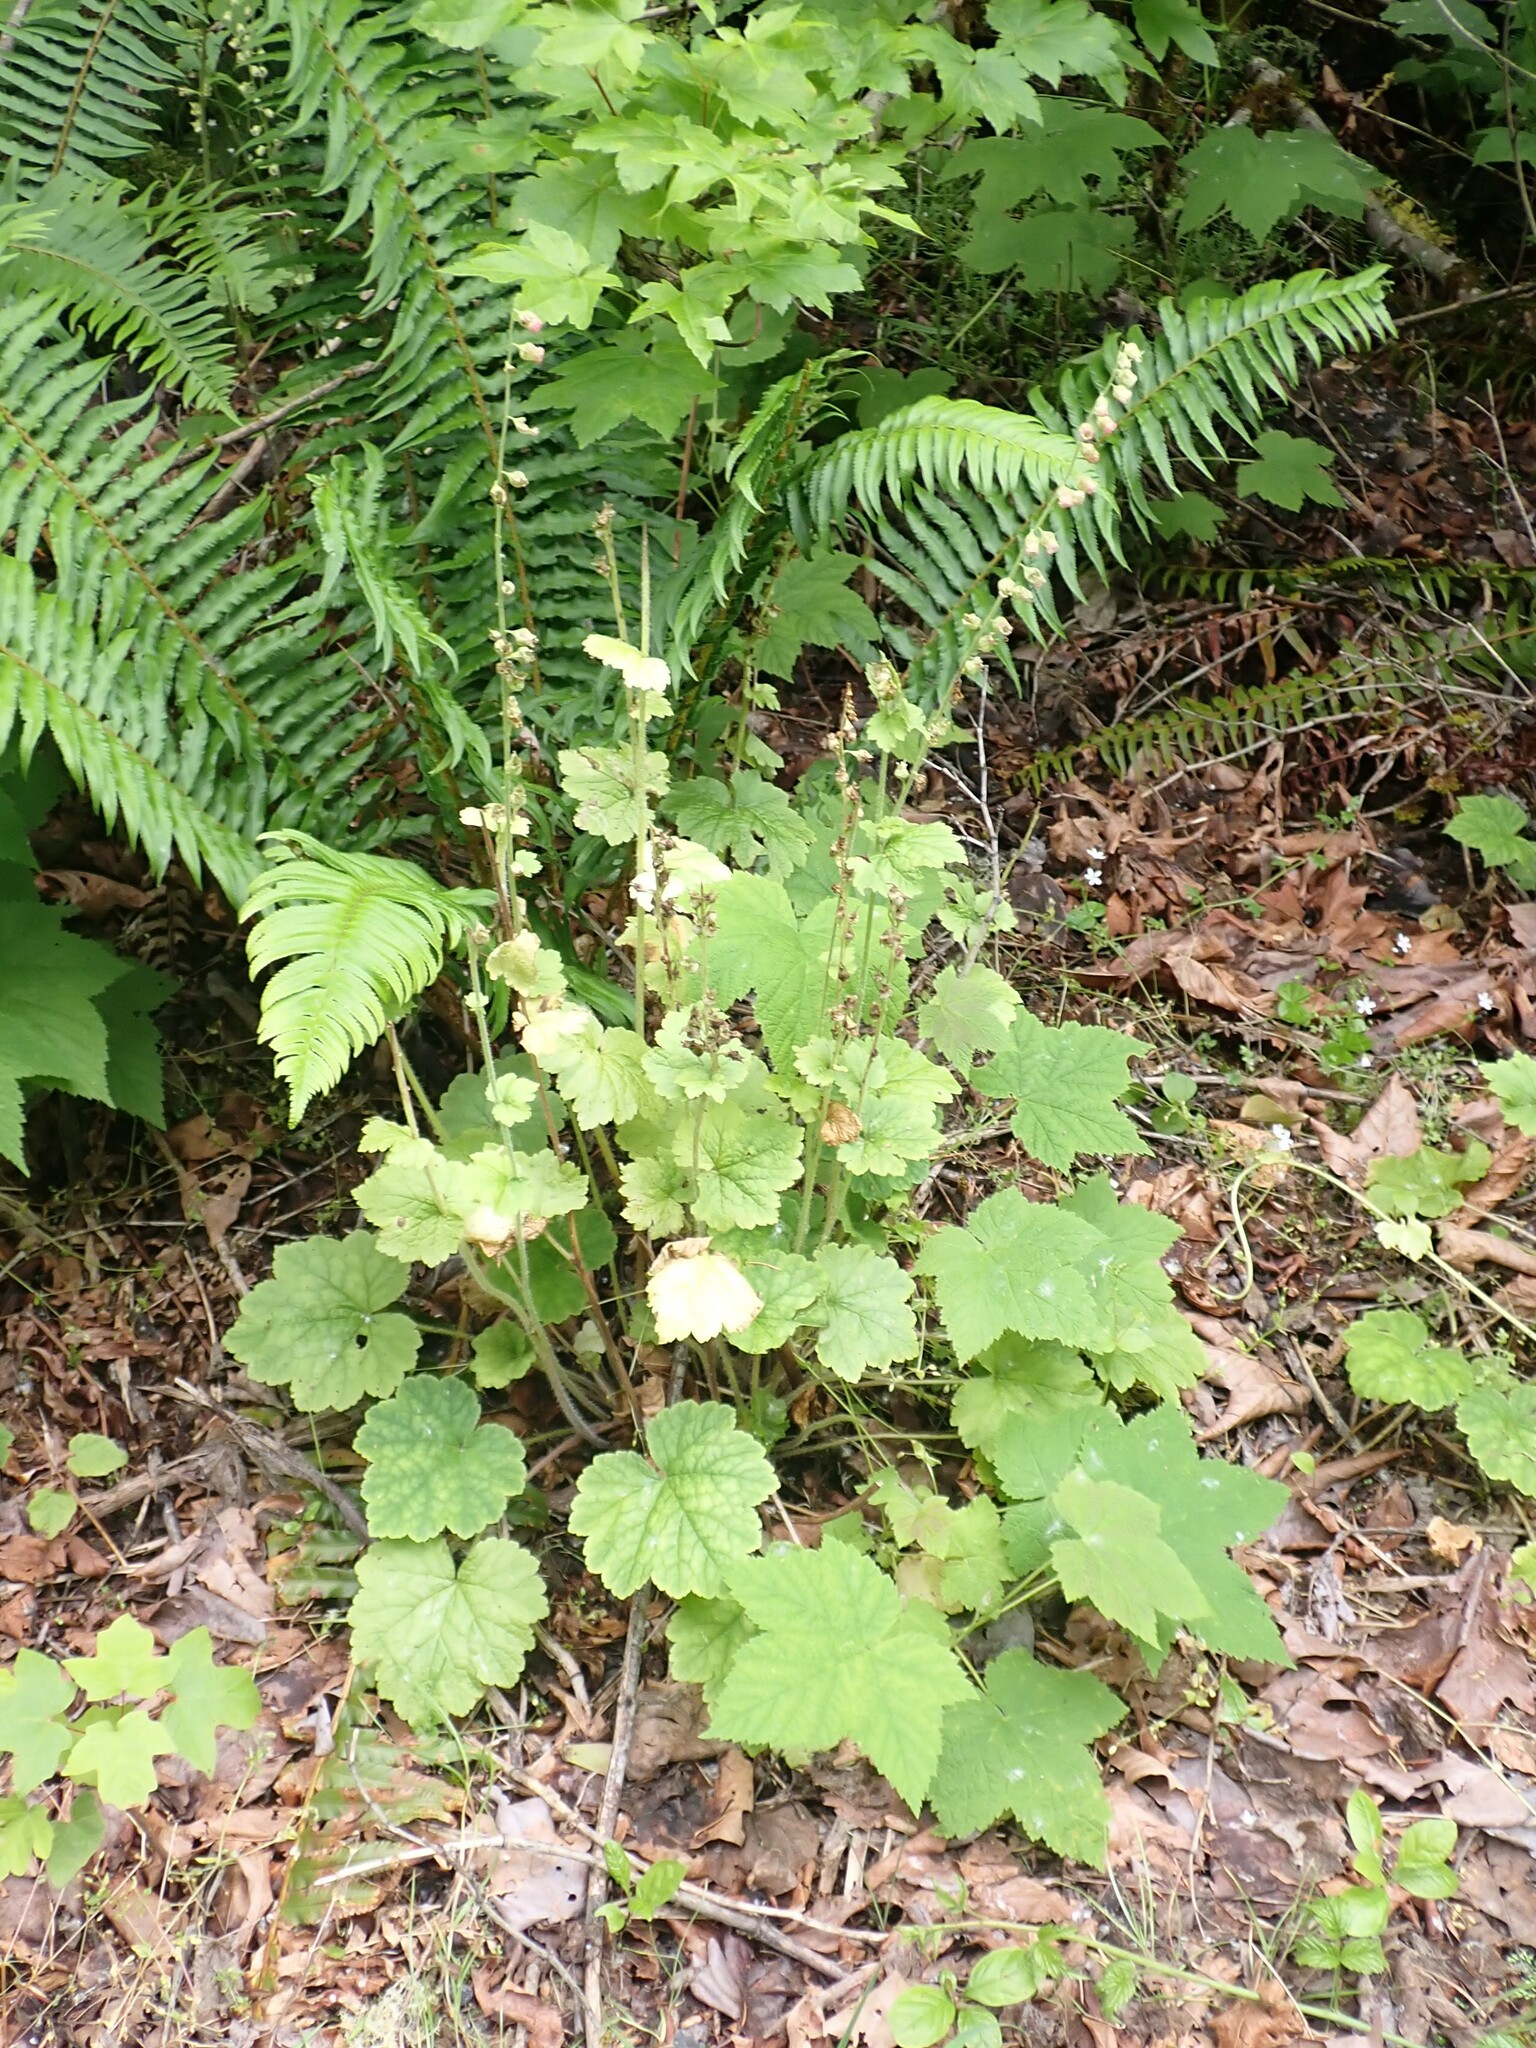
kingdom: Plantae
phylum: Tracheophyta
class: Magnoliopsida
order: Saxifragales
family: Saxifragaceae
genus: Tellima
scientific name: Tellima grandiflora
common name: Fringecups
